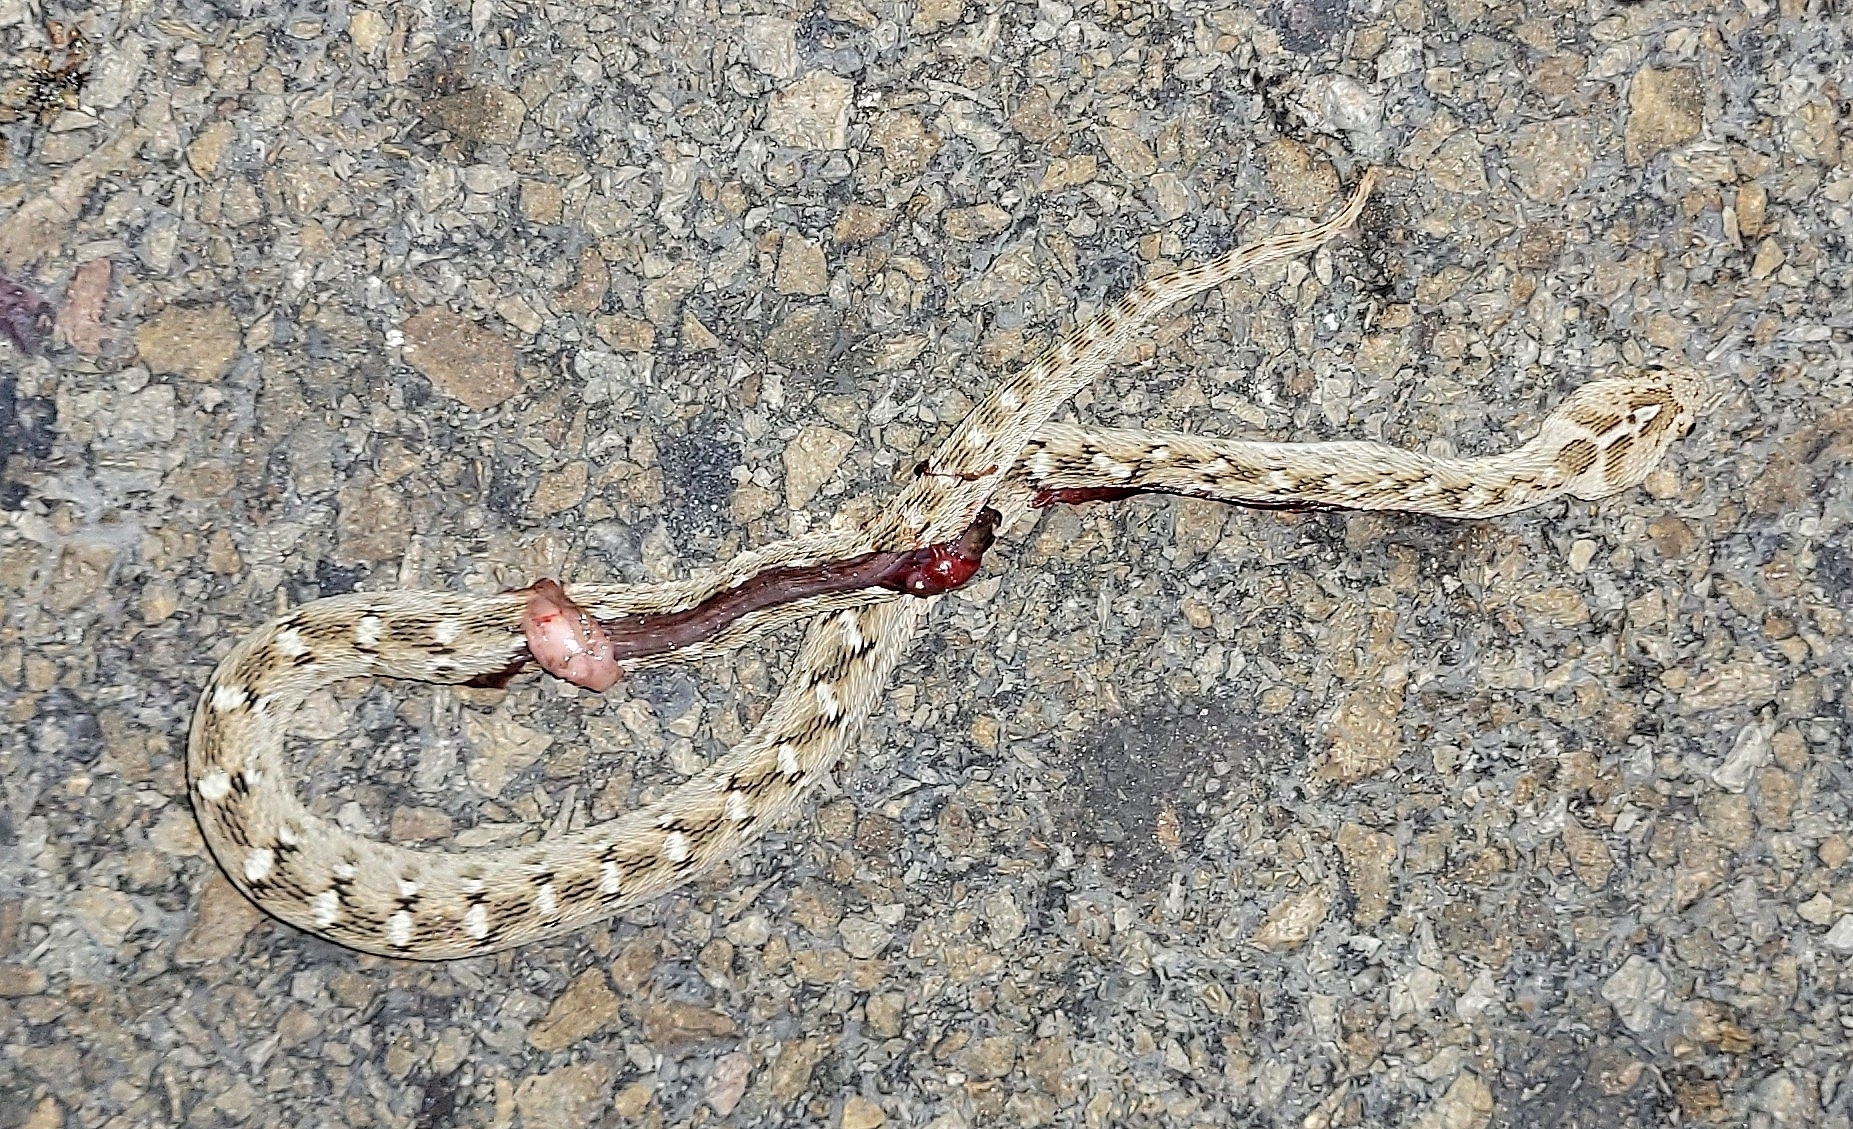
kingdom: Animalia
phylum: Chordata
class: Squamata
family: Viperidae
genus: Echis
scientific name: Echis carinatus
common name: Saw-scaled viper
